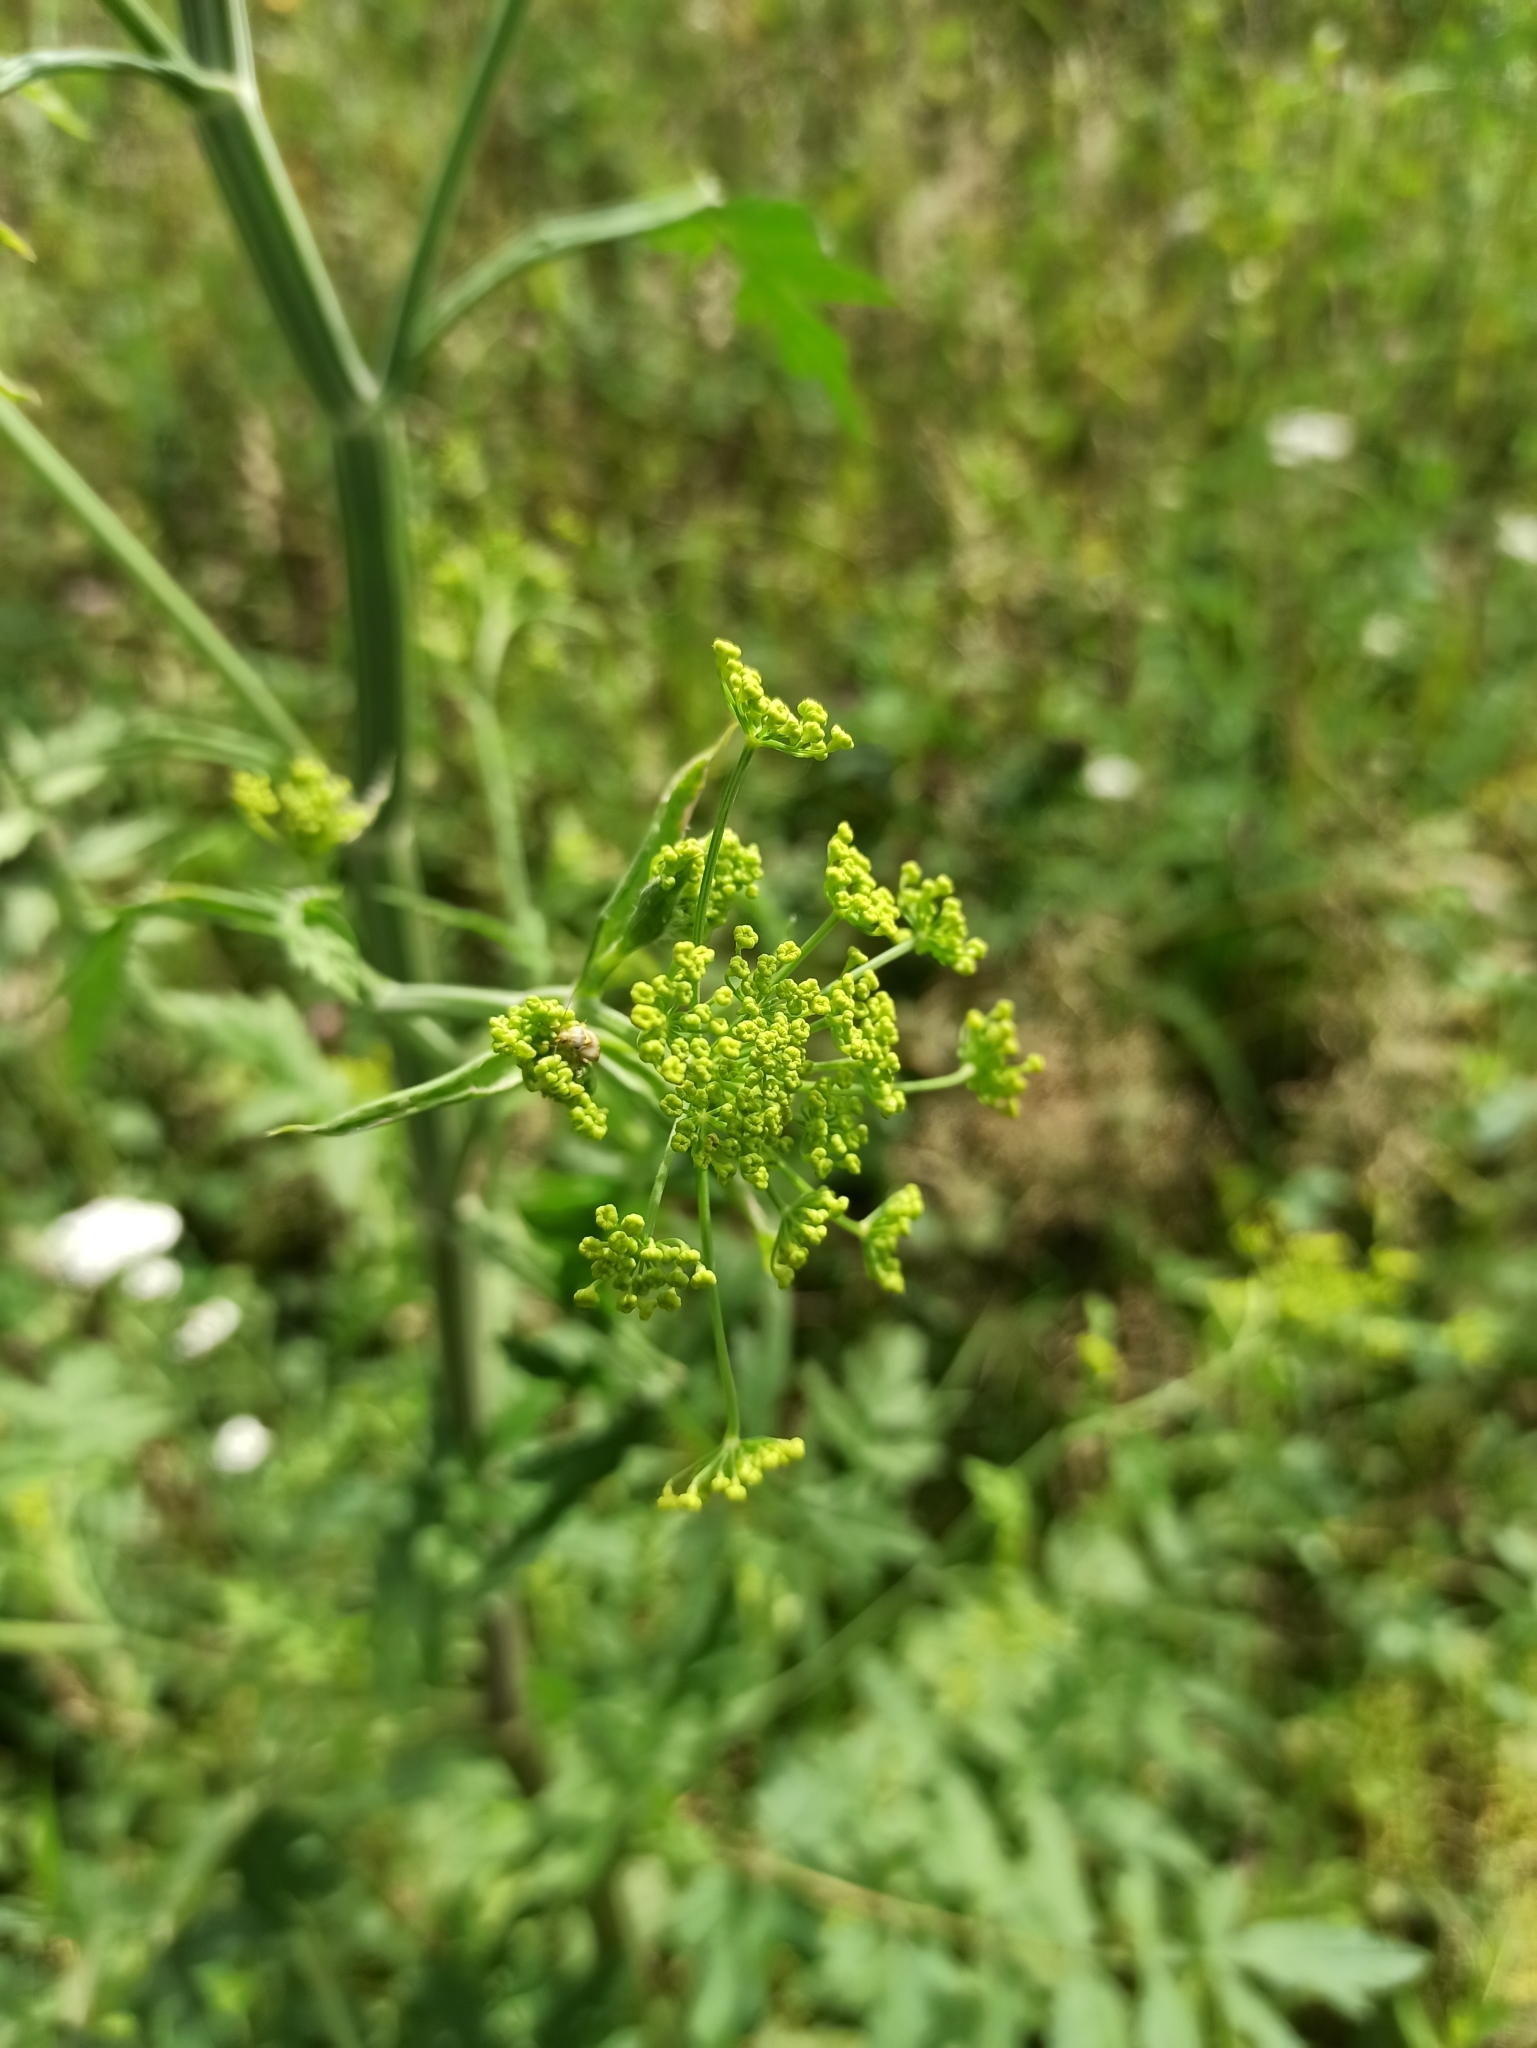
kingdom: Plantae
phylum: Tracheophyta
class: Magnoliopsida
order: Apiales
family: Apiaceae
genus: Pastinaca
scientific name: Pastinaca sativa
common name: Wild parsnip
